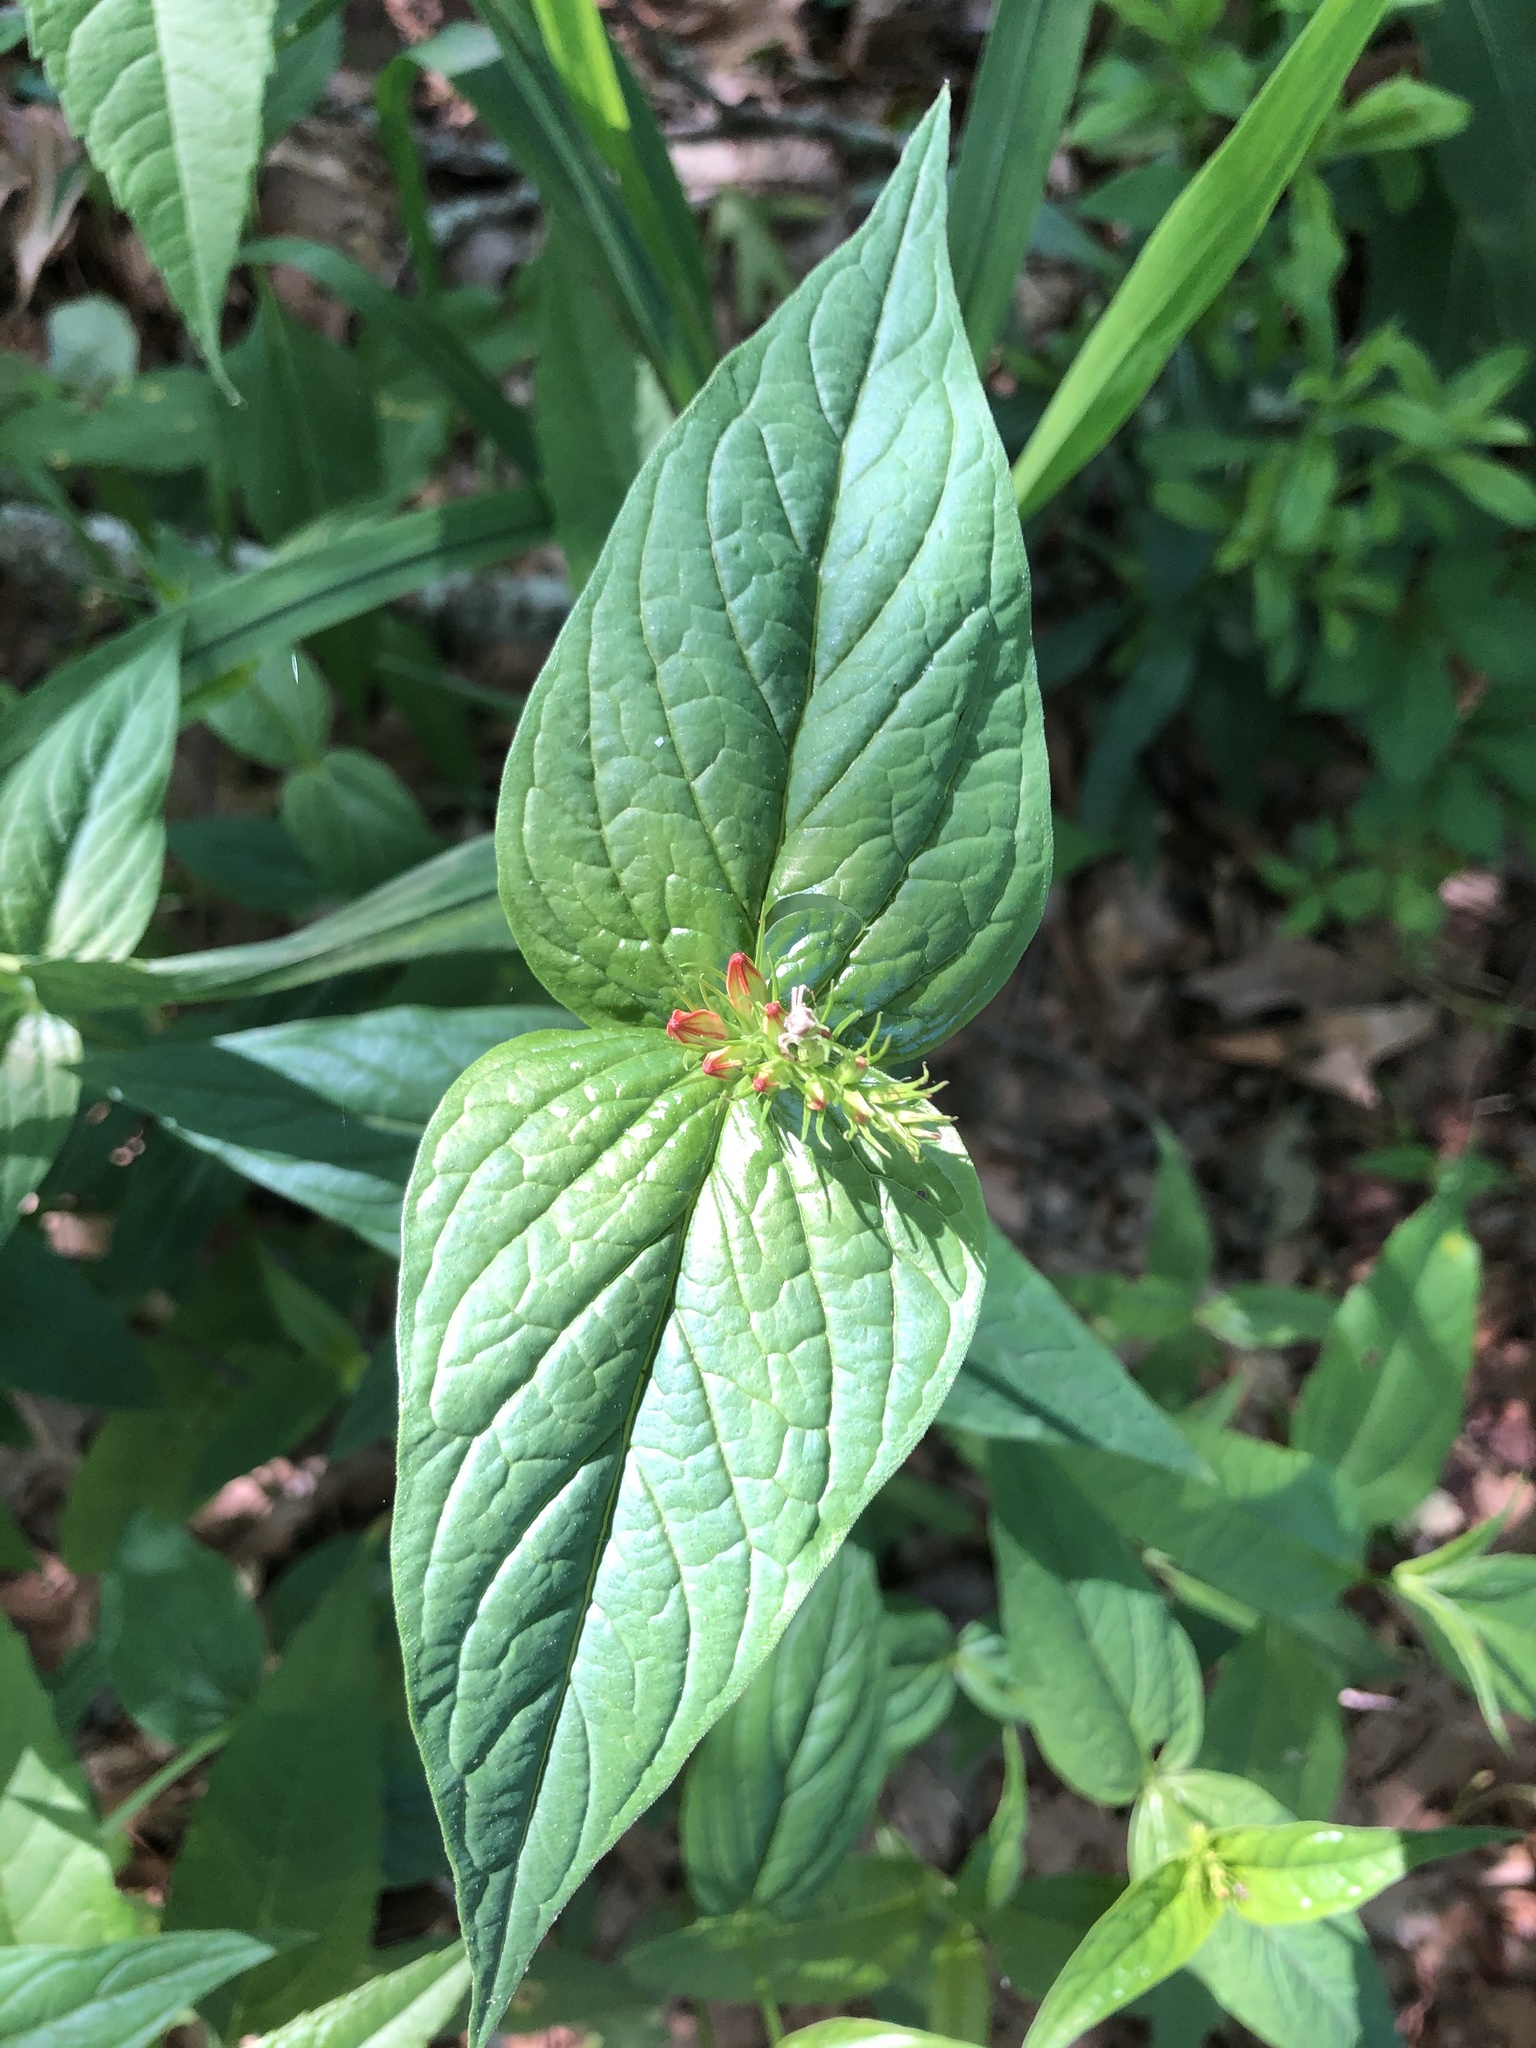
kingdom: Plantae
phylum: Tracheophyta
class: Magnoliopsida
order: Gentianales
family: Loganiaceae
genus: Spigelia
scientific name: Spigelia marilandica
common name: Indian-pink
